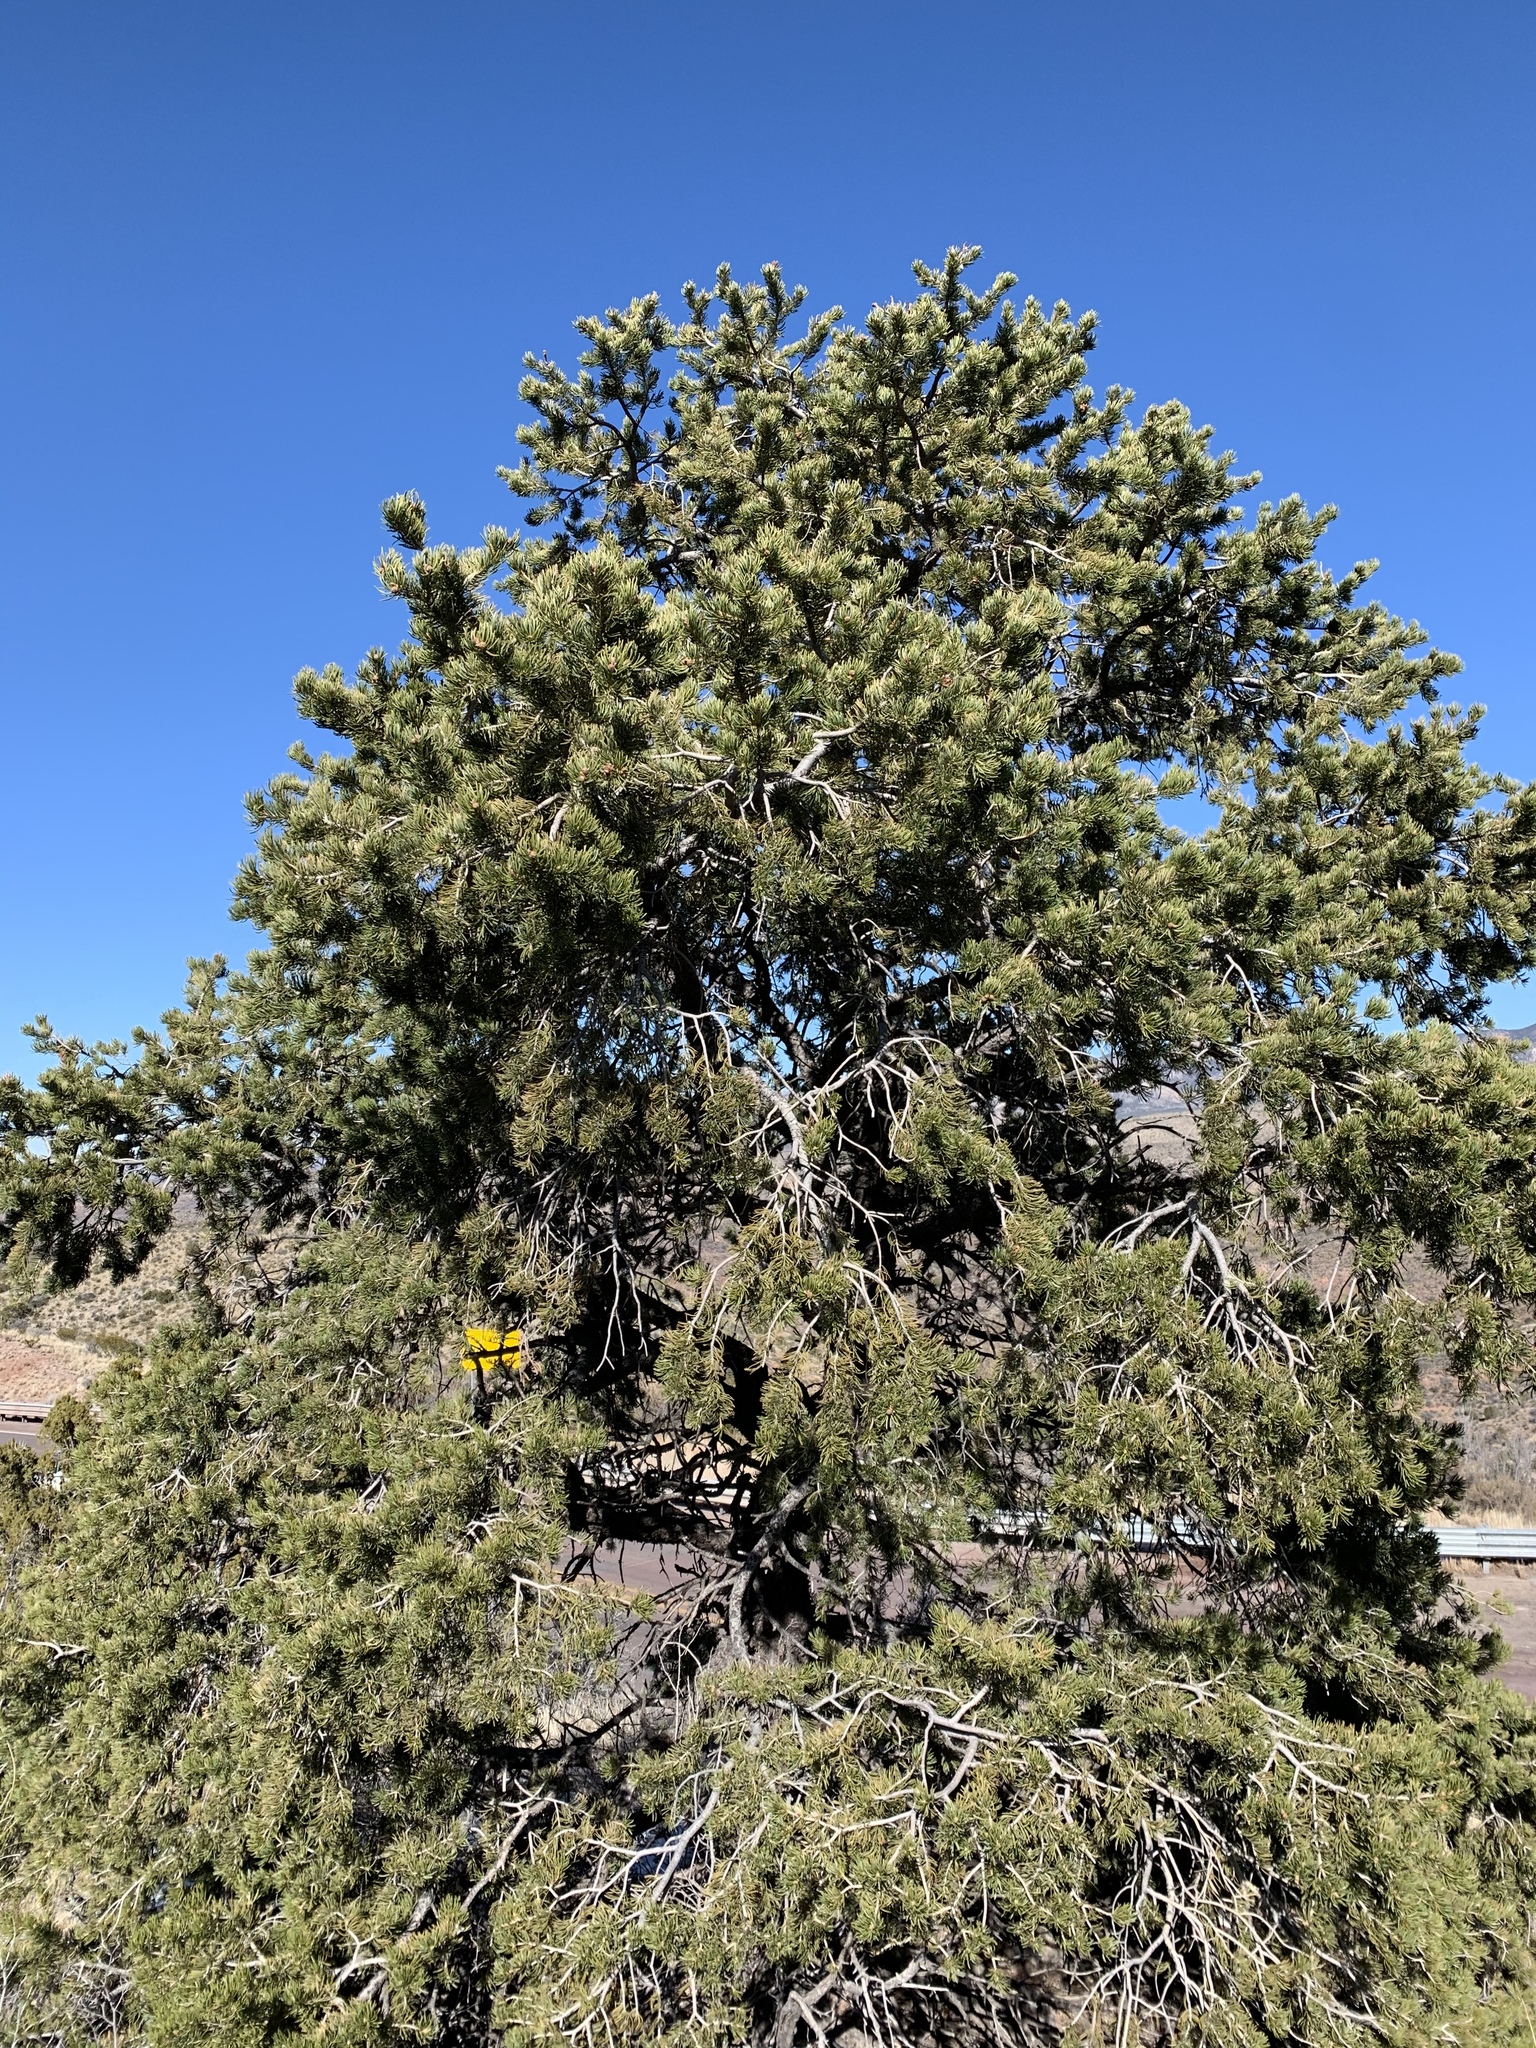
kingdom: Plantae
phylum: Tracheophyta
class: Pinopsida
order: Pinales
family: Pinaceae
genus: Pinus
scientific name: Pinus edulis
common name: Colorado pinyon
